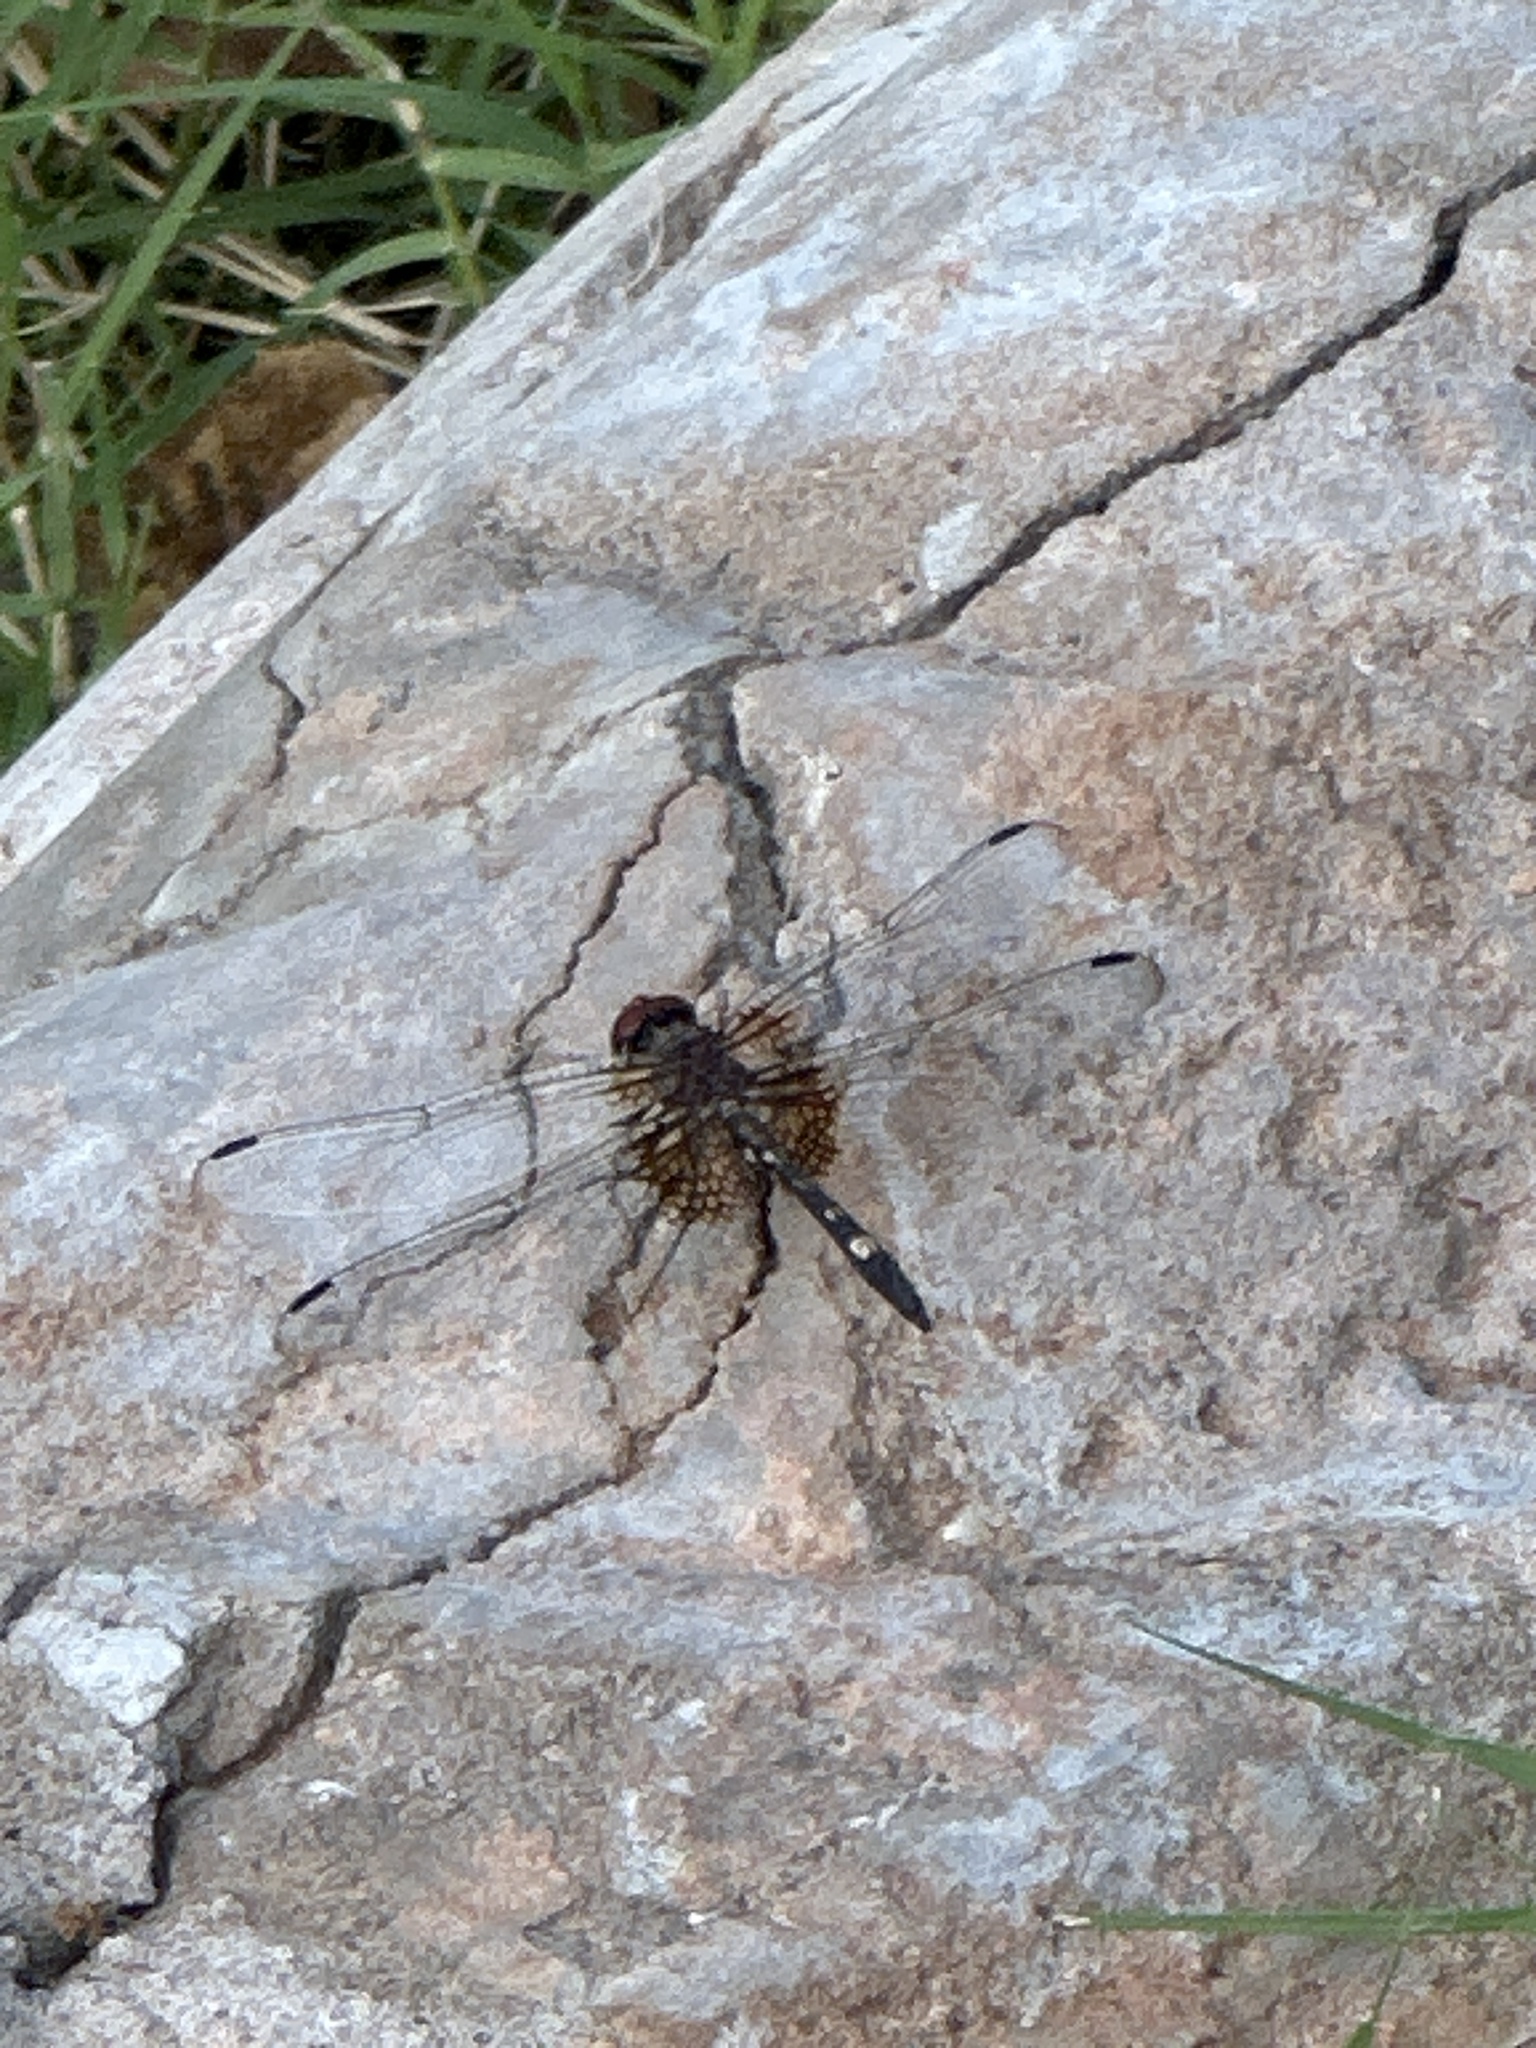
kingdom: Animalia
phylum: Arthropoda
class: Insecta
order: Odonata
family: Libellulidae
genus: Dythemis
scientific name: Dythemis fugax
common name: Checkered setwing
